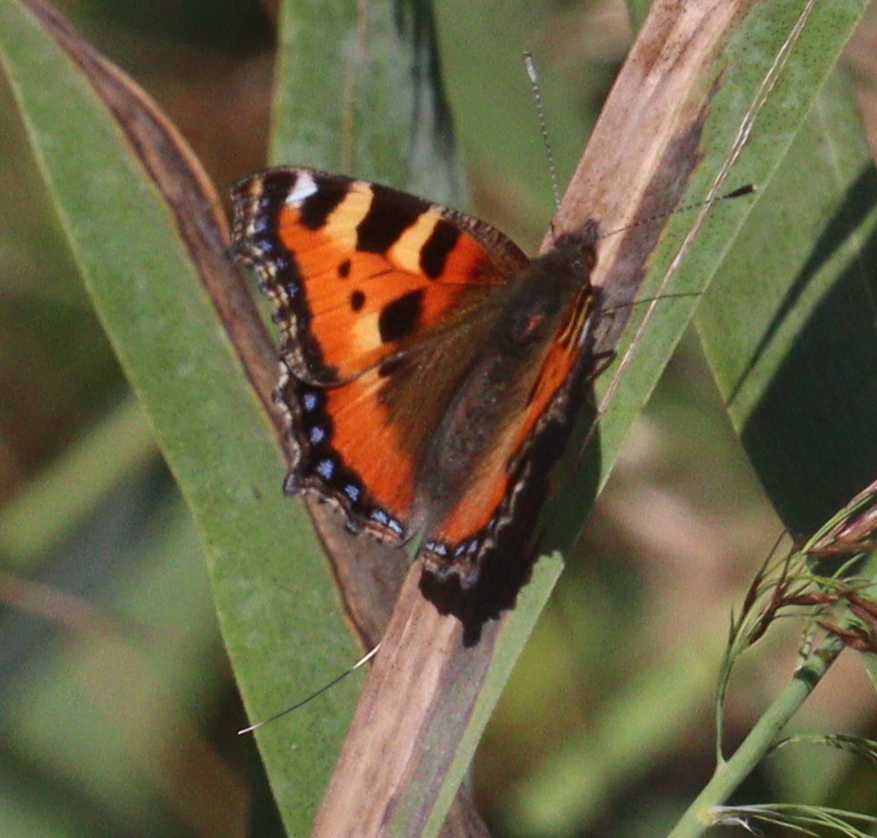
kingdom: Animalia
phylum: Arthropoda
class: Insecta
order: Lepidoptera
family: Nymphalidae
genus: Aglais
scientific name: Aglais urticae
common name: Small tortoiseshell
